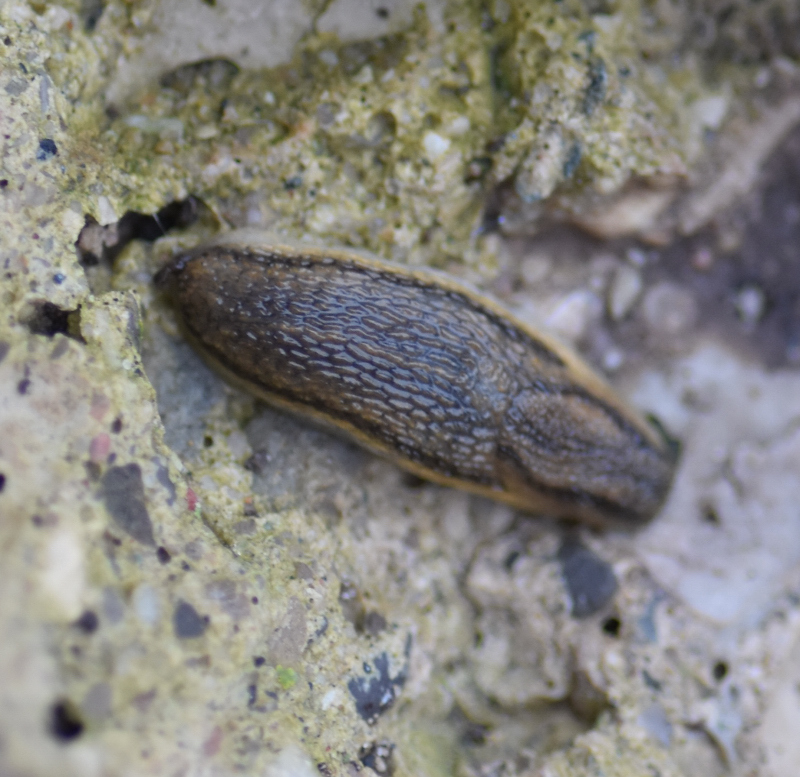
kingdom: Animalia
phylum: Mollusca
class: Gastropoda
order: Stylommatophora
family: Arionidae
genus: Arion
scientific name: Arion fasciatus
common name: Orange-banded arion
